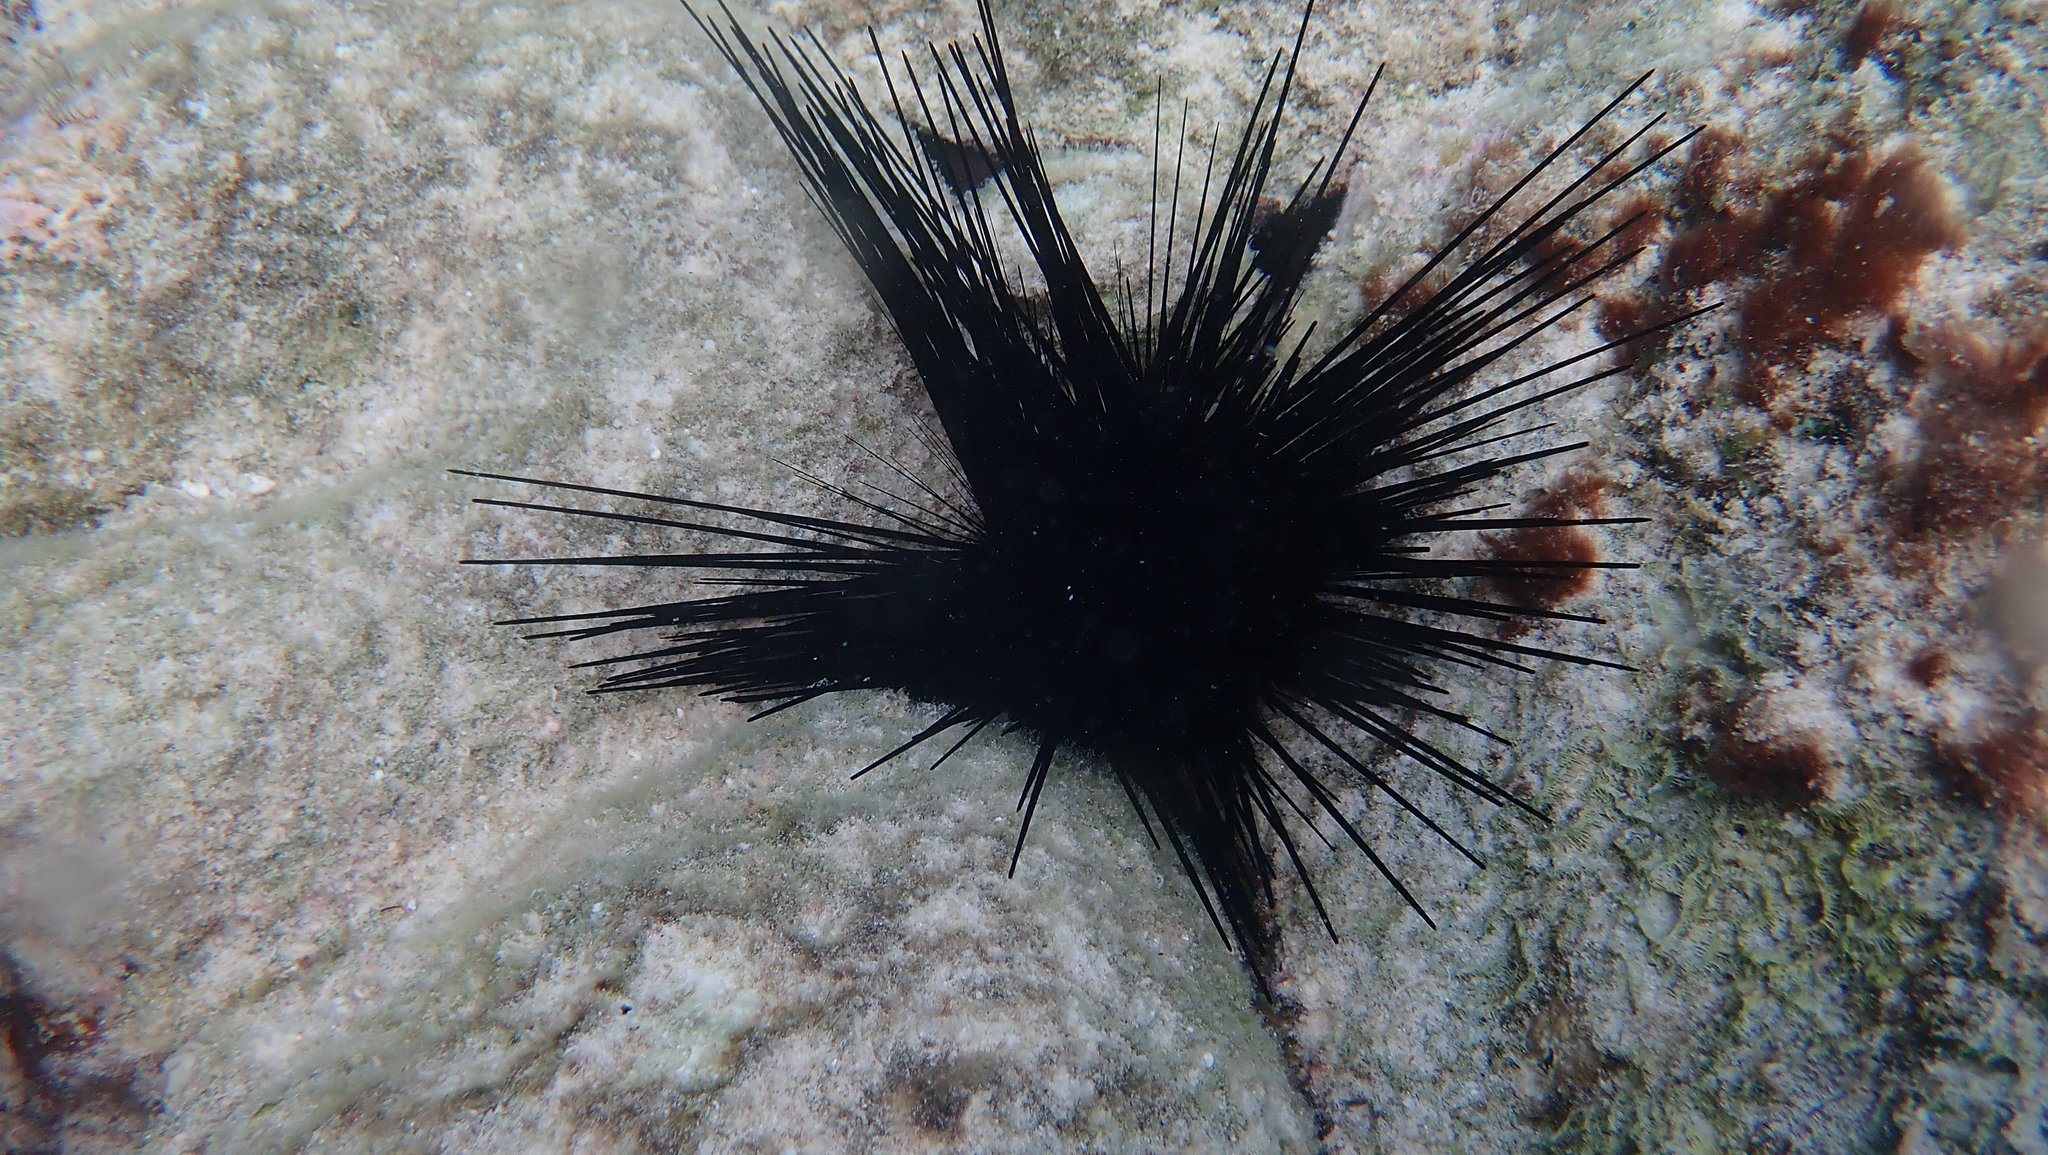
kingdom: Animalia
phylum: Echinodermata
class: Echinoidea
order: Diadematoida
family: Diadematidae
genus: Diadema
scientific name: Diadema antillarum
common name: Spiny urchin
